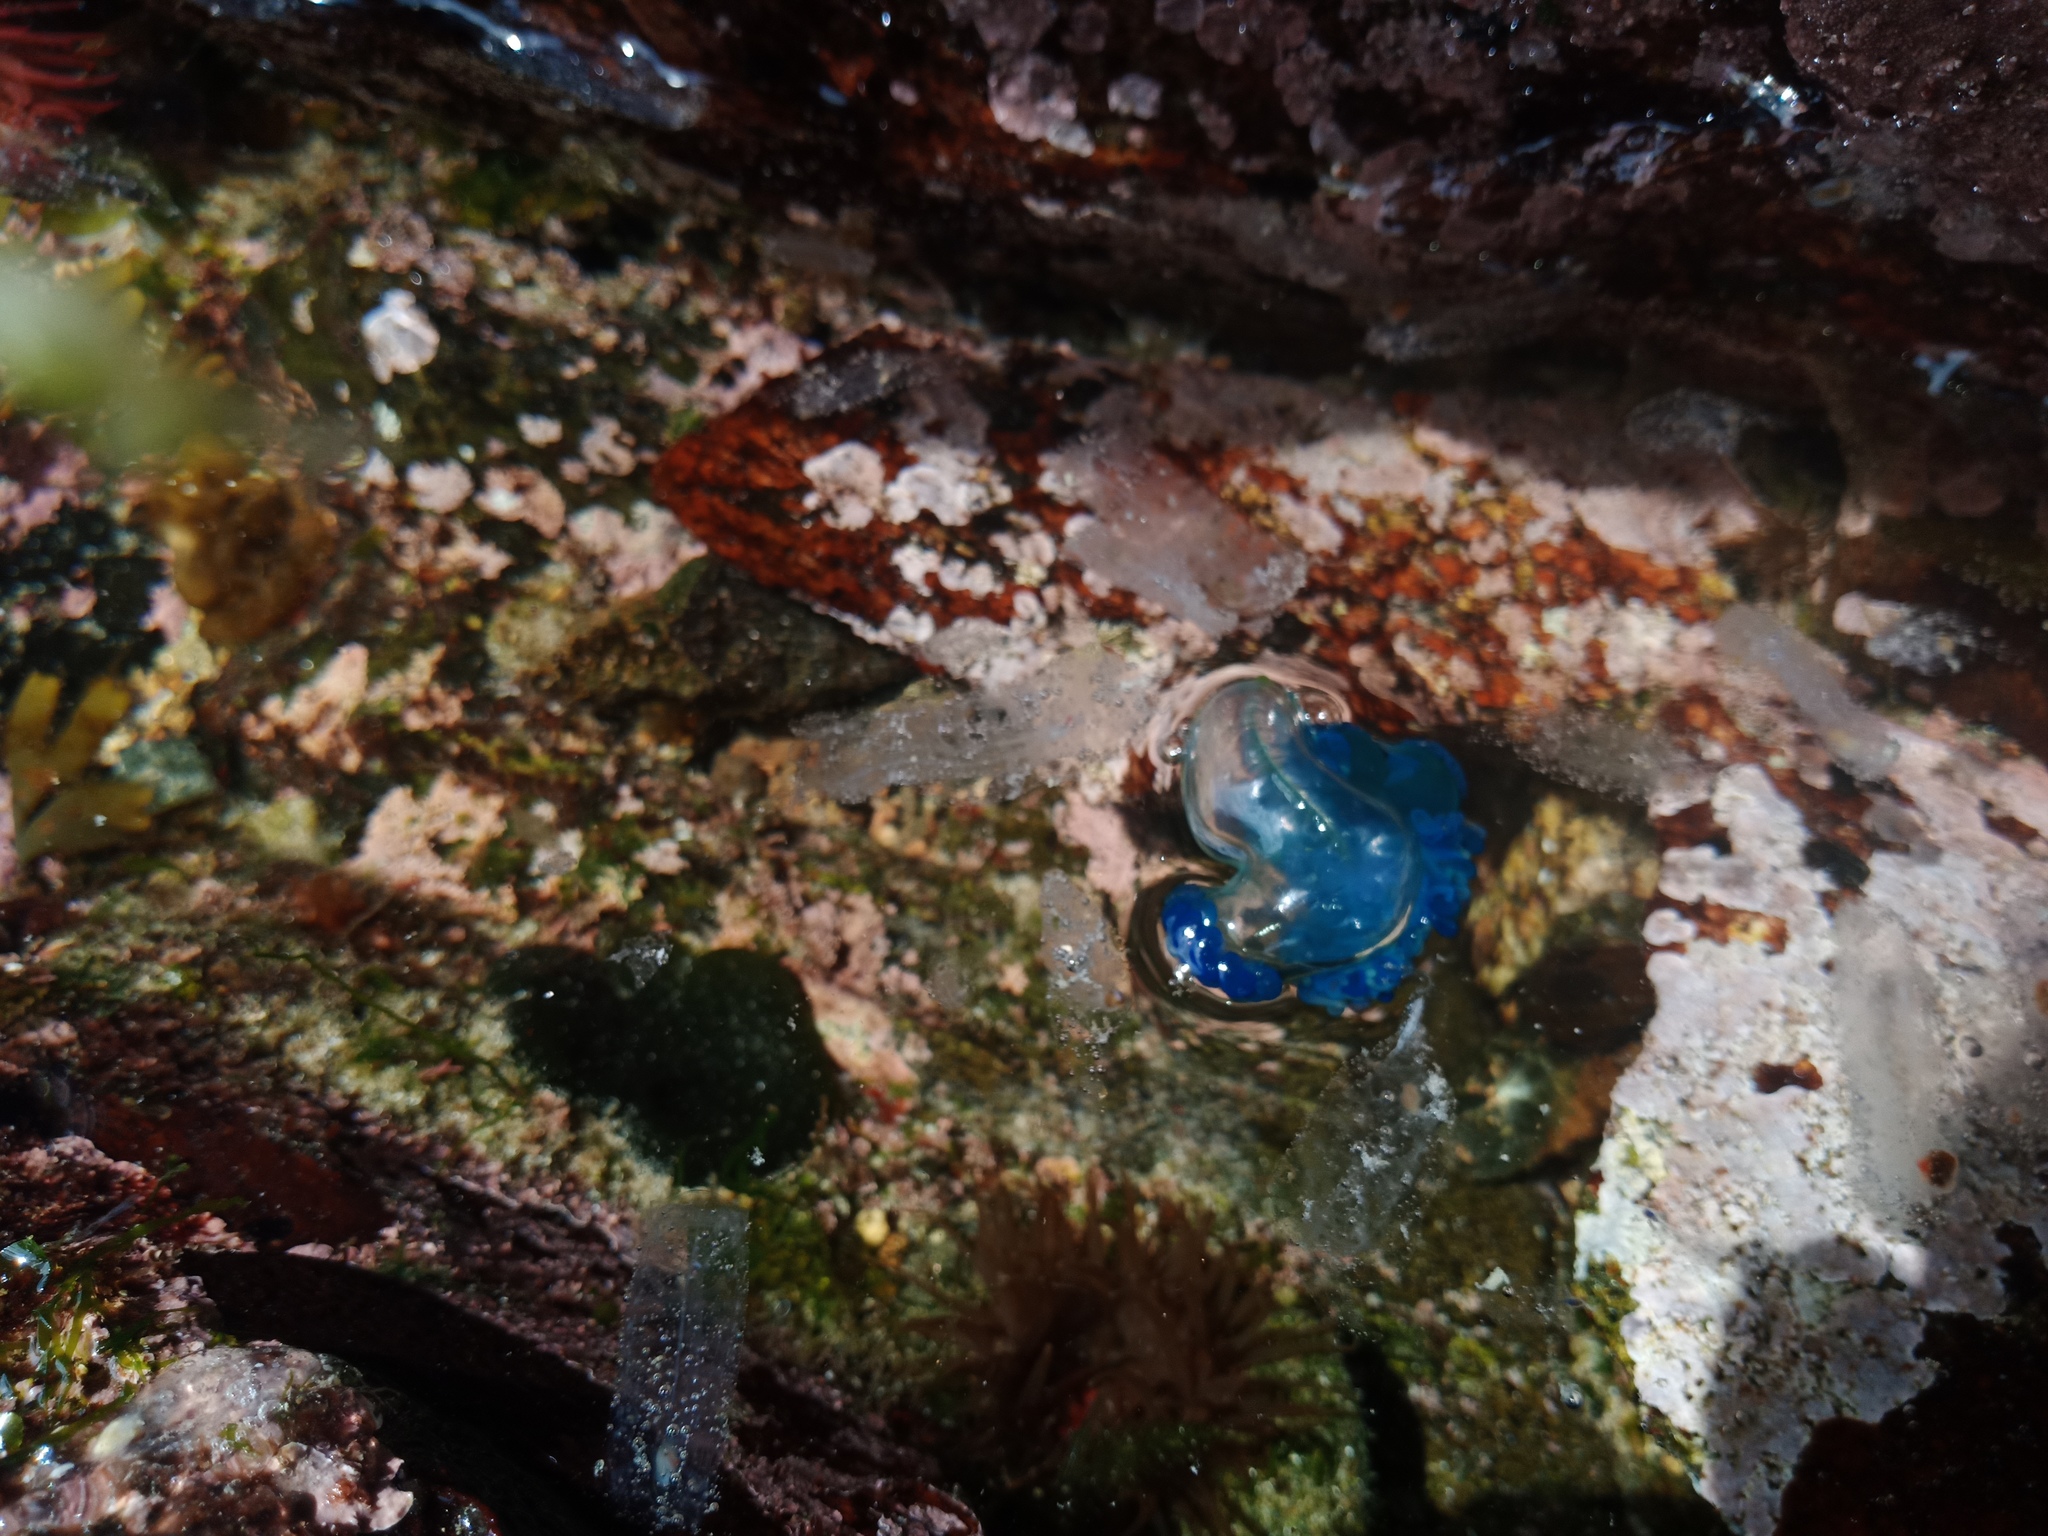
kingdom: Animalia
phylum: Cnidaria
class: Hydrozoa
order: Siphonophorae
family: Physaliidae
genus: Physalia
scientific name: Physalia physalis
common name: Portuguese man-of-war
